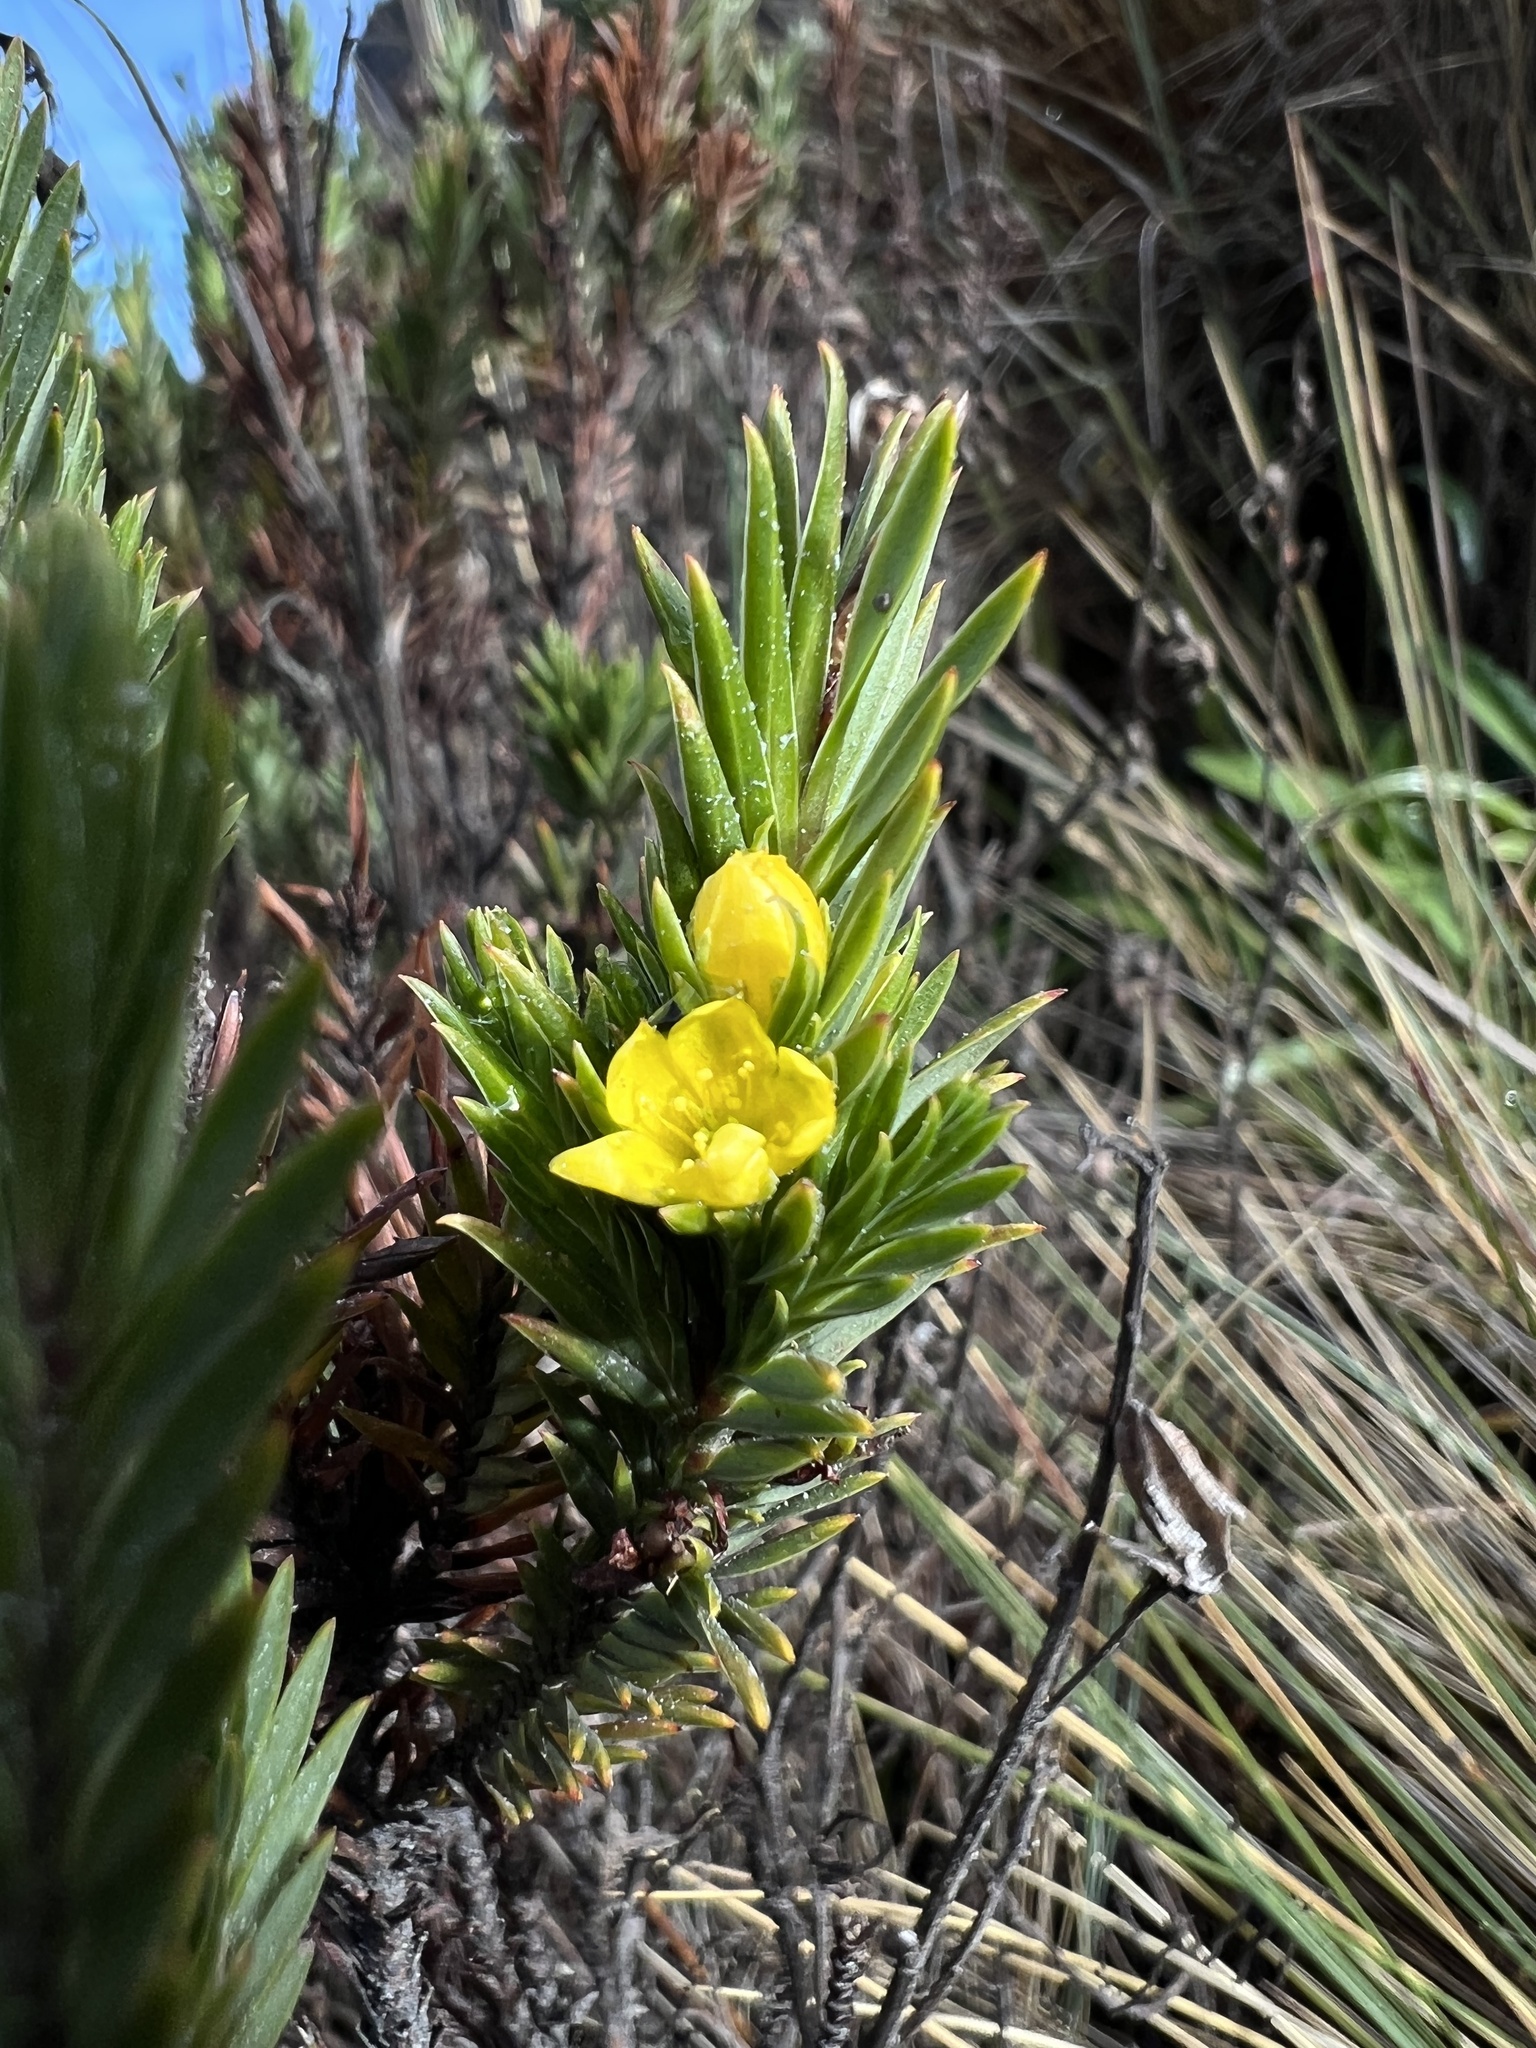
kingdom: Plantae
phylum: Tracheophyta
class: Magnoliopsida
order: Malpighiales
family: Hypericaceae
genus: Hypericum
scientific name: Hypericum juniperinum
